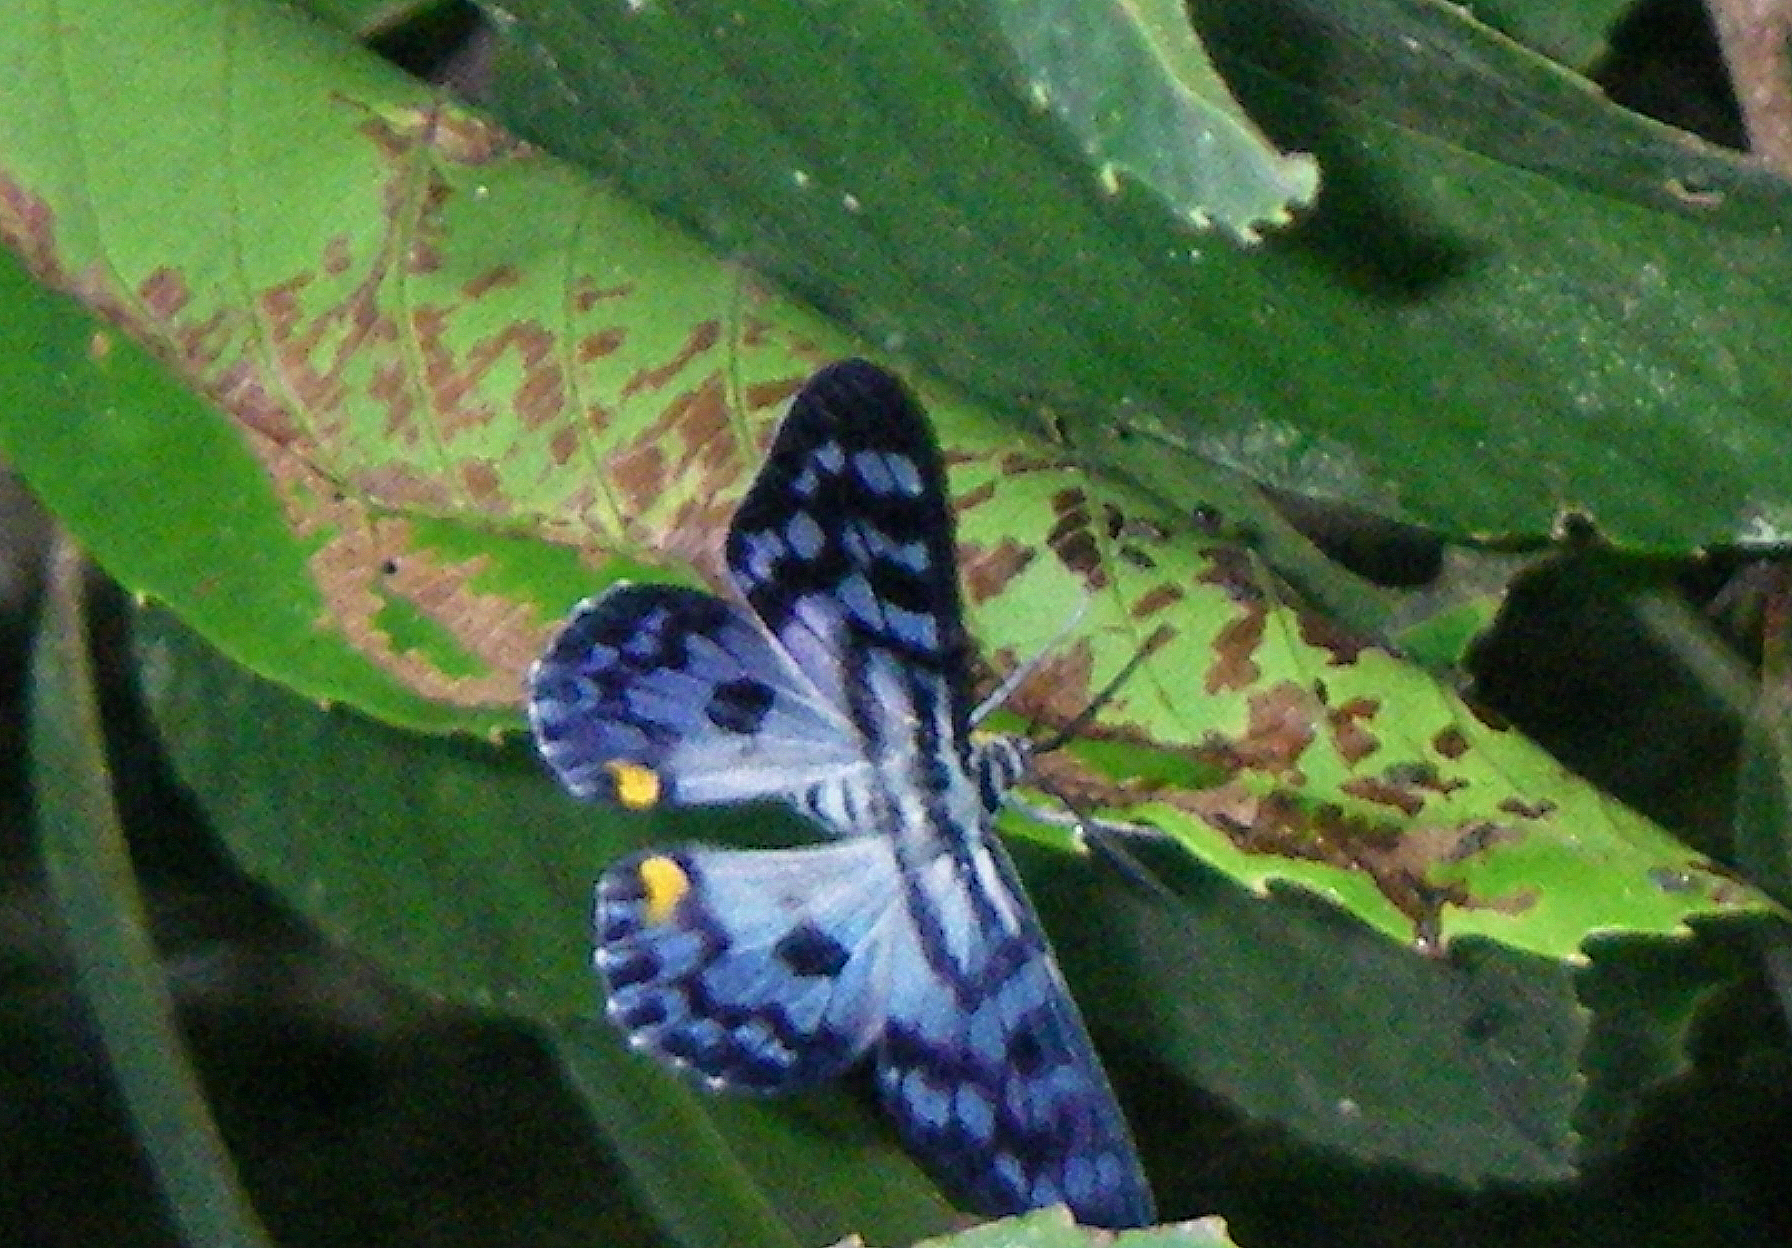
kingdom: Animalia
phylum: Arthropoda
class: Insecta
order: Lepidoptera
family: Geometridae
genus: Dysphania
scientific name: Dysphania transducta
